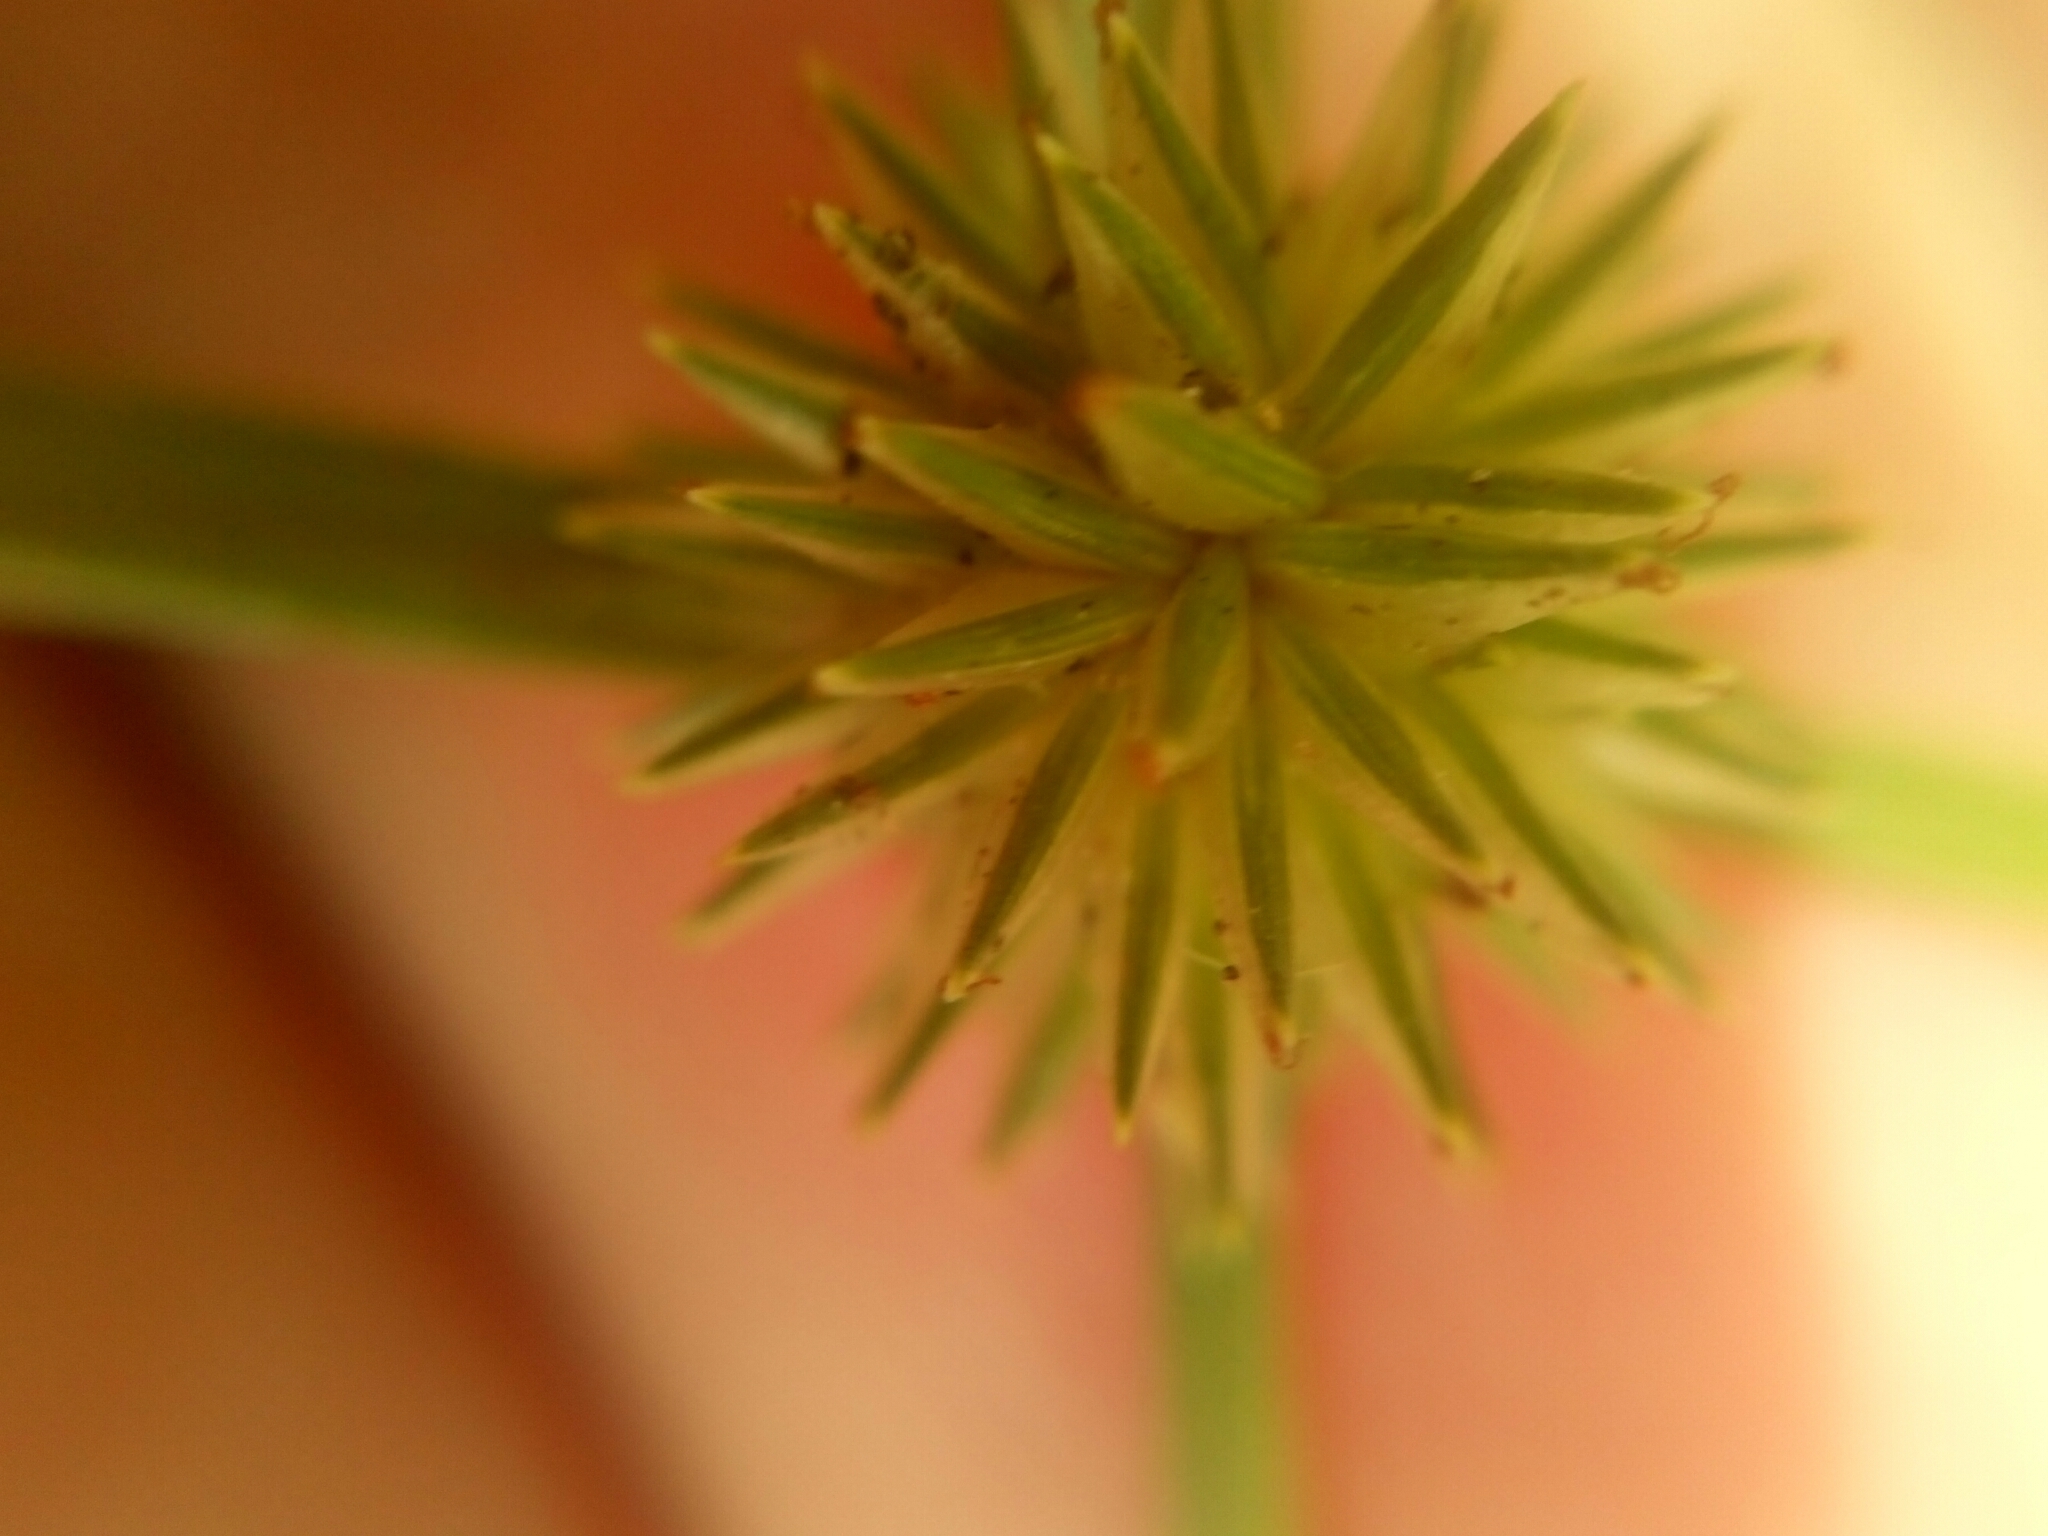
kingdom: Plantae
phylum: Tracheophyta
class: Liliopsida
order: Poales
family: Cyperaceae
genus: Cyperus
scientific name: Cyperus echinatus
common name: Teasel sedge
